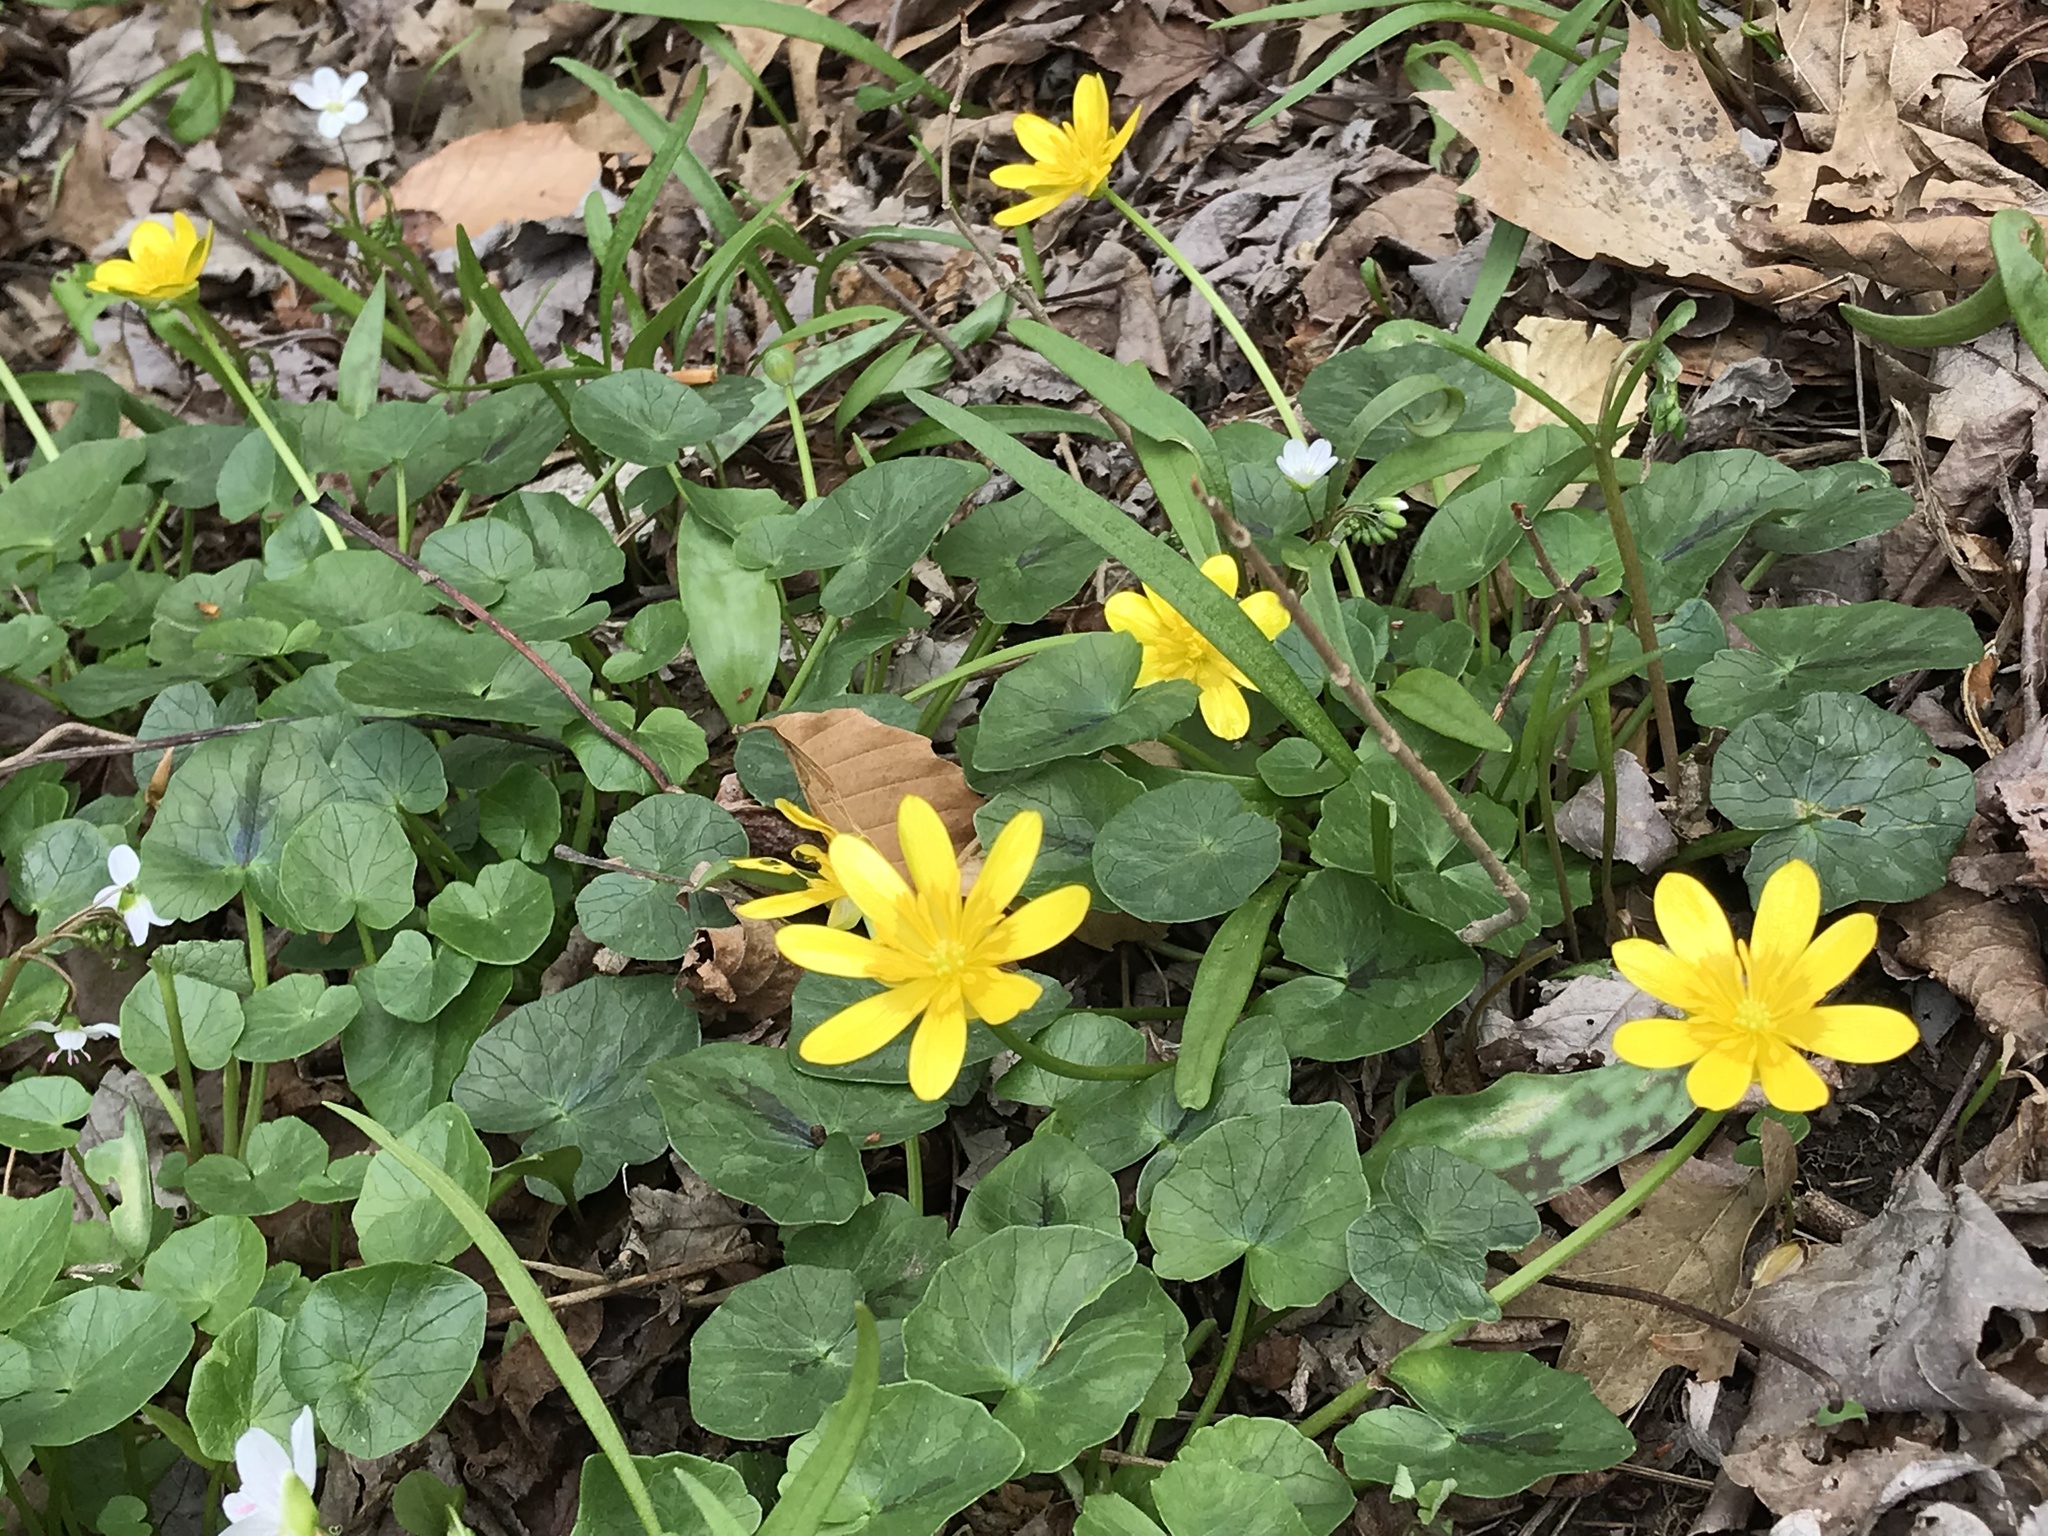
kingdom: Plantae
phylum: Tracheophyta
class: Magnoliopsida
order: Ranunculales
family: Ranunculaceae
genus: Ficaria
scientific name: Ficaria verna
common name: Lesser celandine
